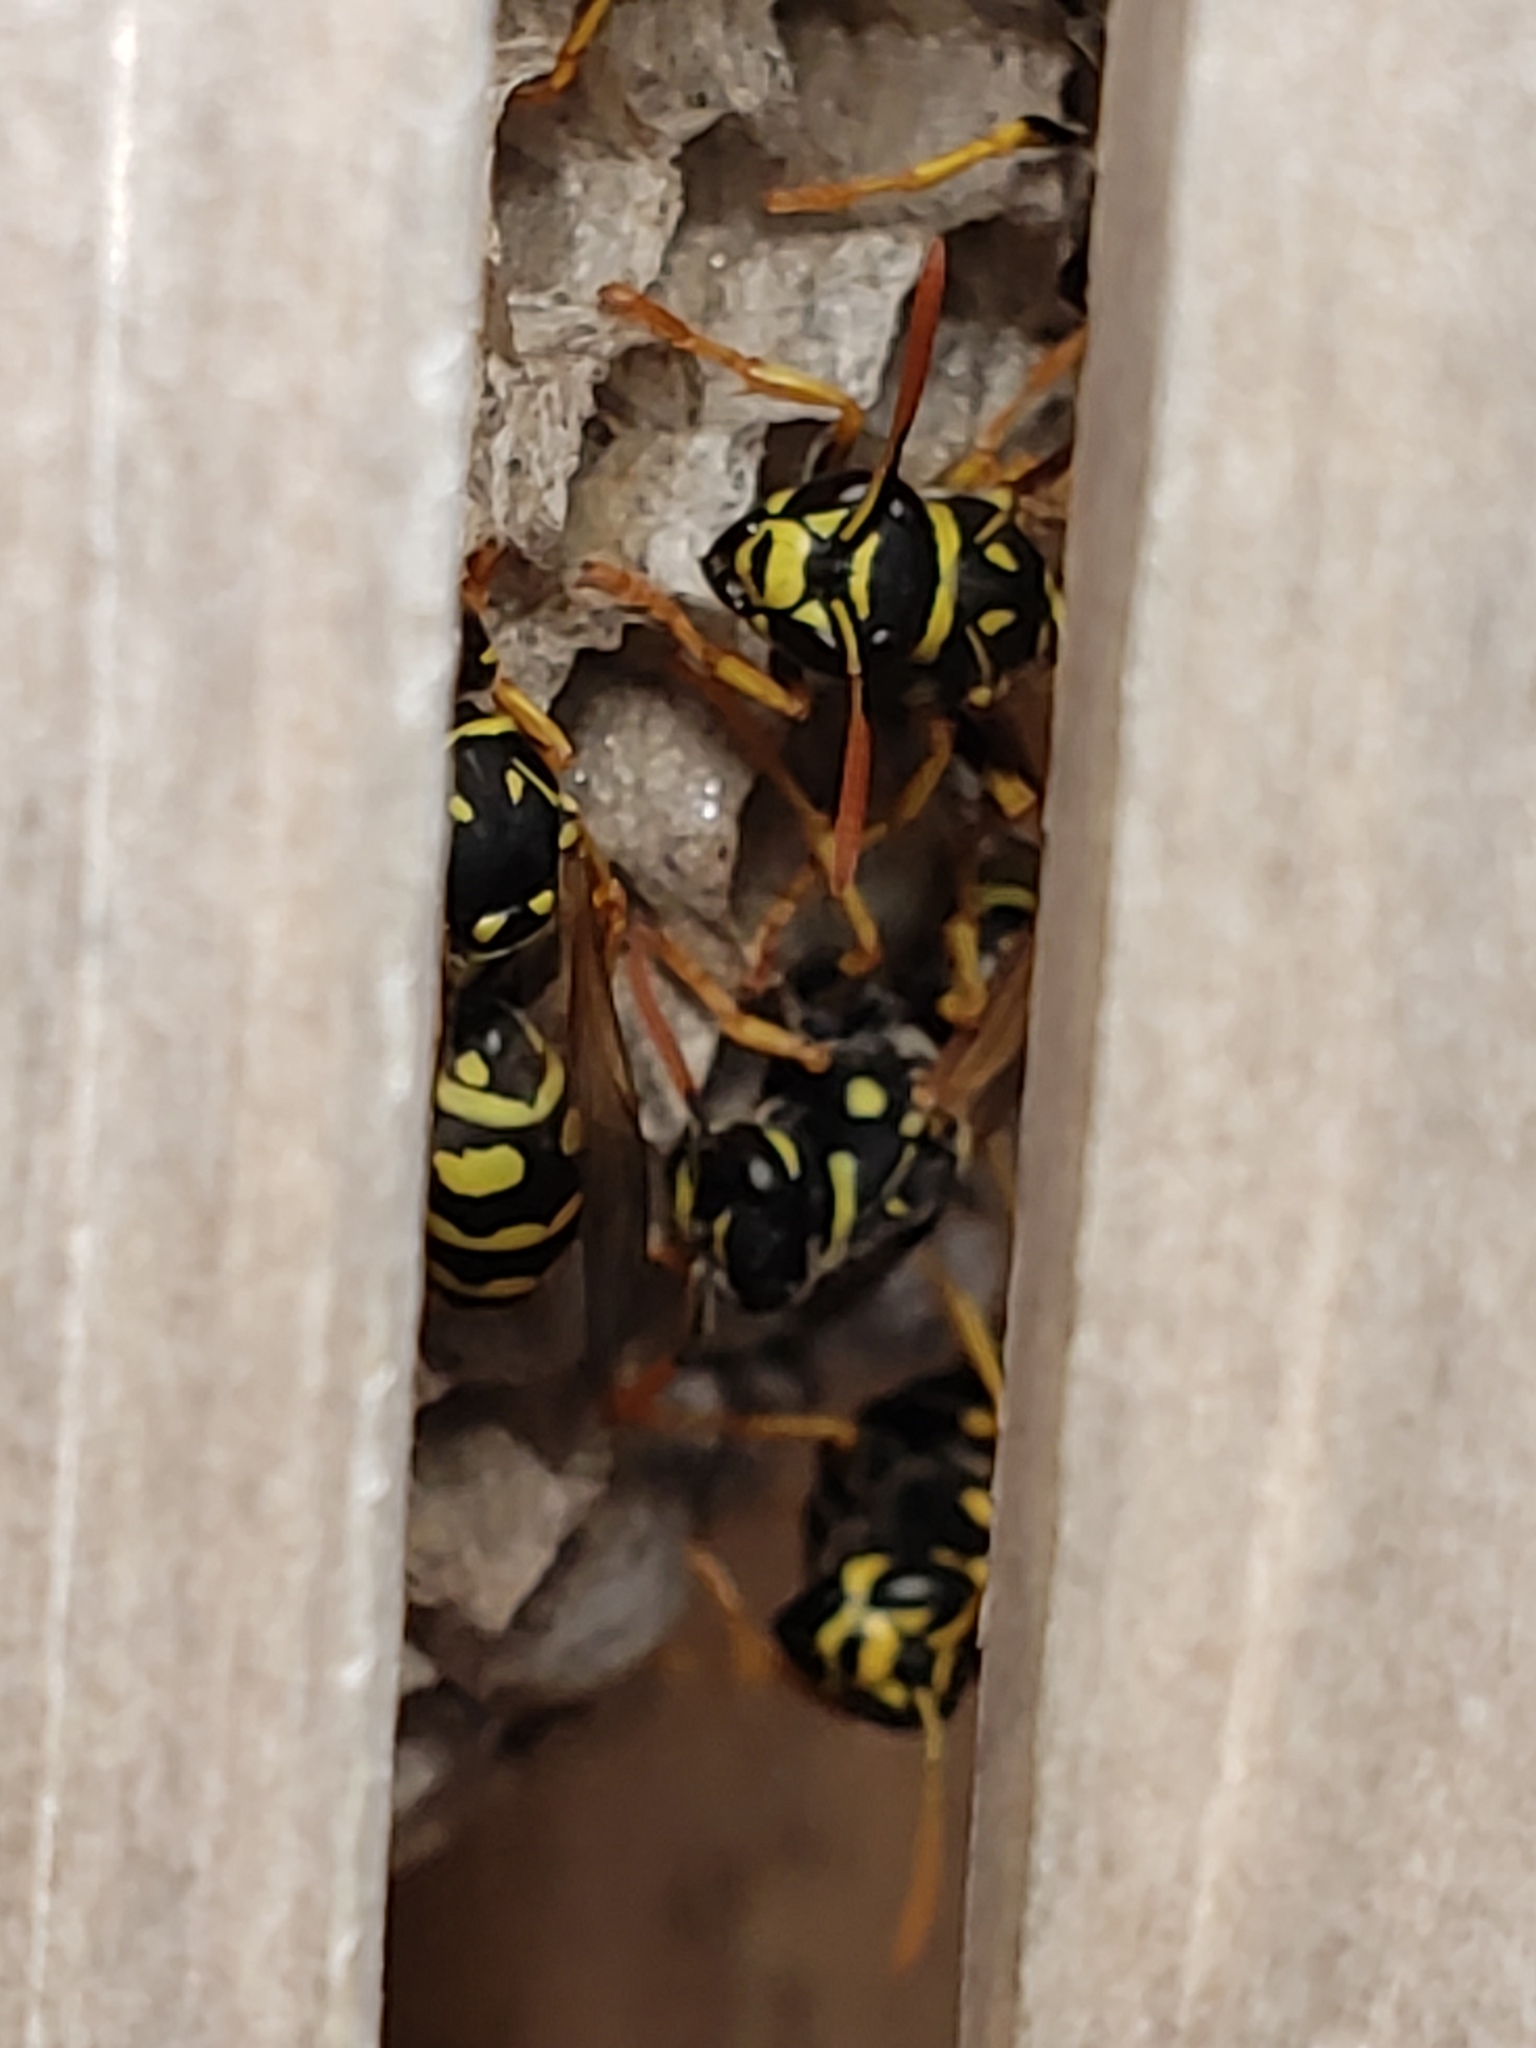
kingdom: Animalia
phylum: Arthropoda
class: Insecta
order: Hymenoptera
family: Eumenidae
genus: Polistes
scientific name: Polistes dominula
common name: Paper wasp
